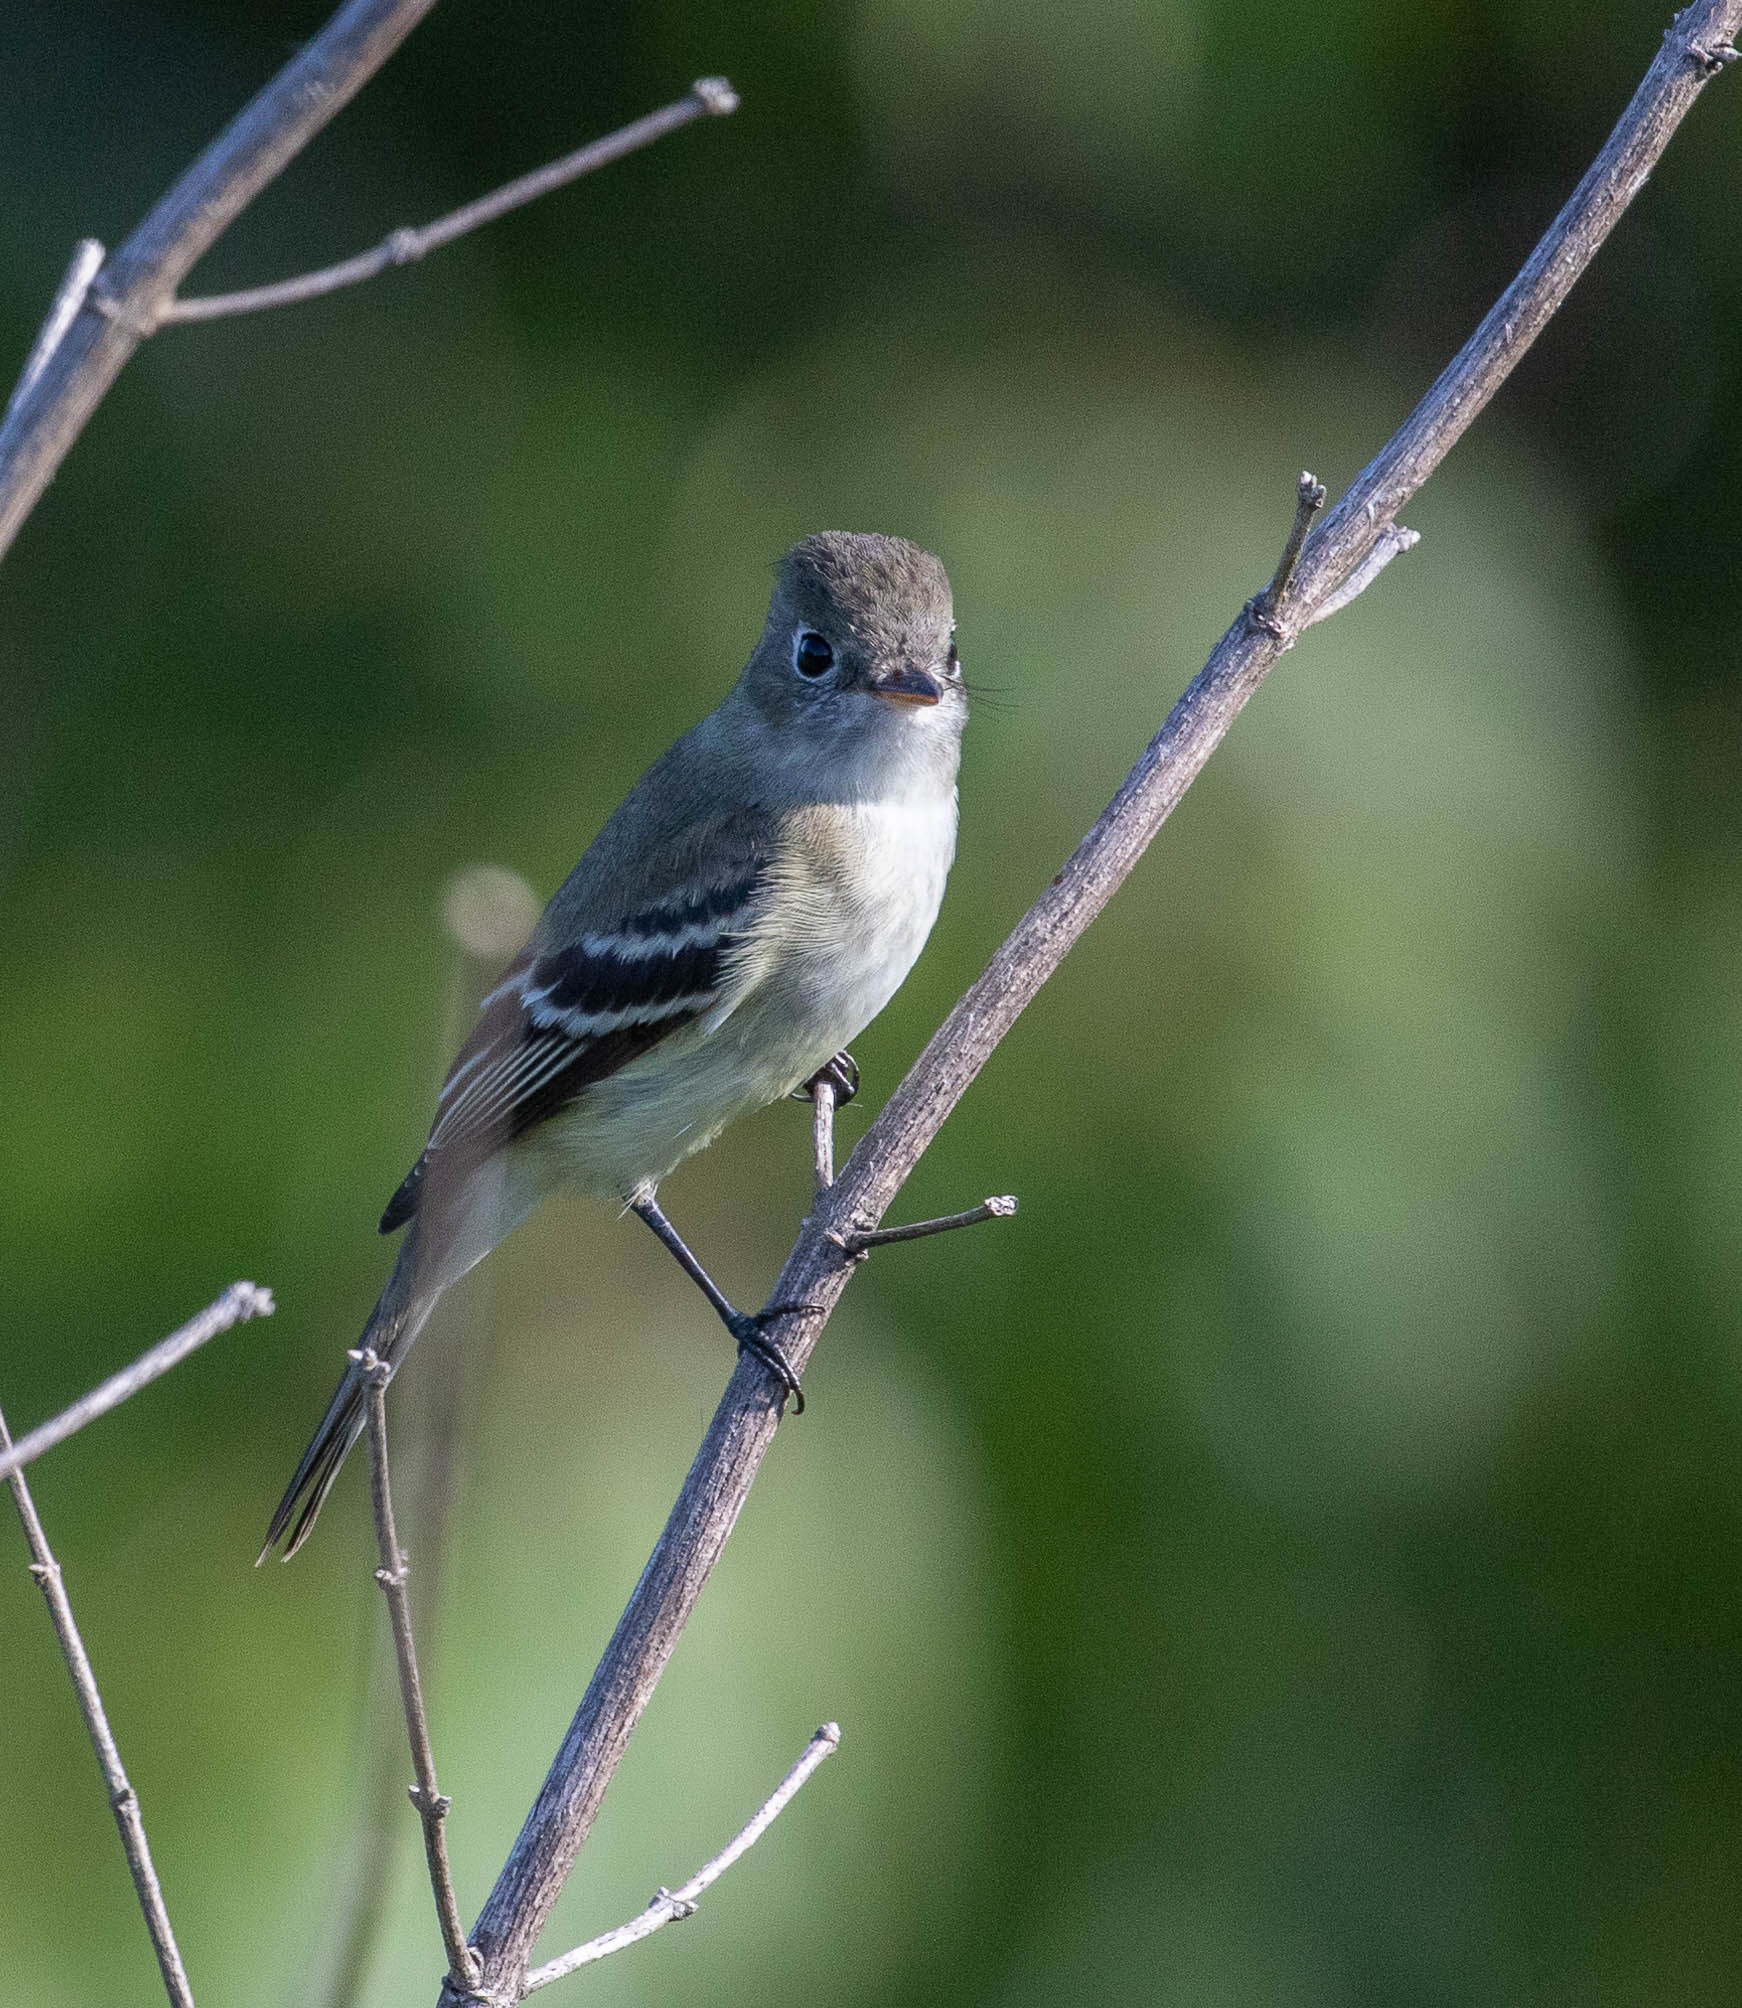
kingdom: Animalia
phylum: Chordata
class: Aves
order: Passeriformes
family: Tyrannidae
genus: Empidonax
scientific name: Empidonax minimus
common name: Least flycatcher
